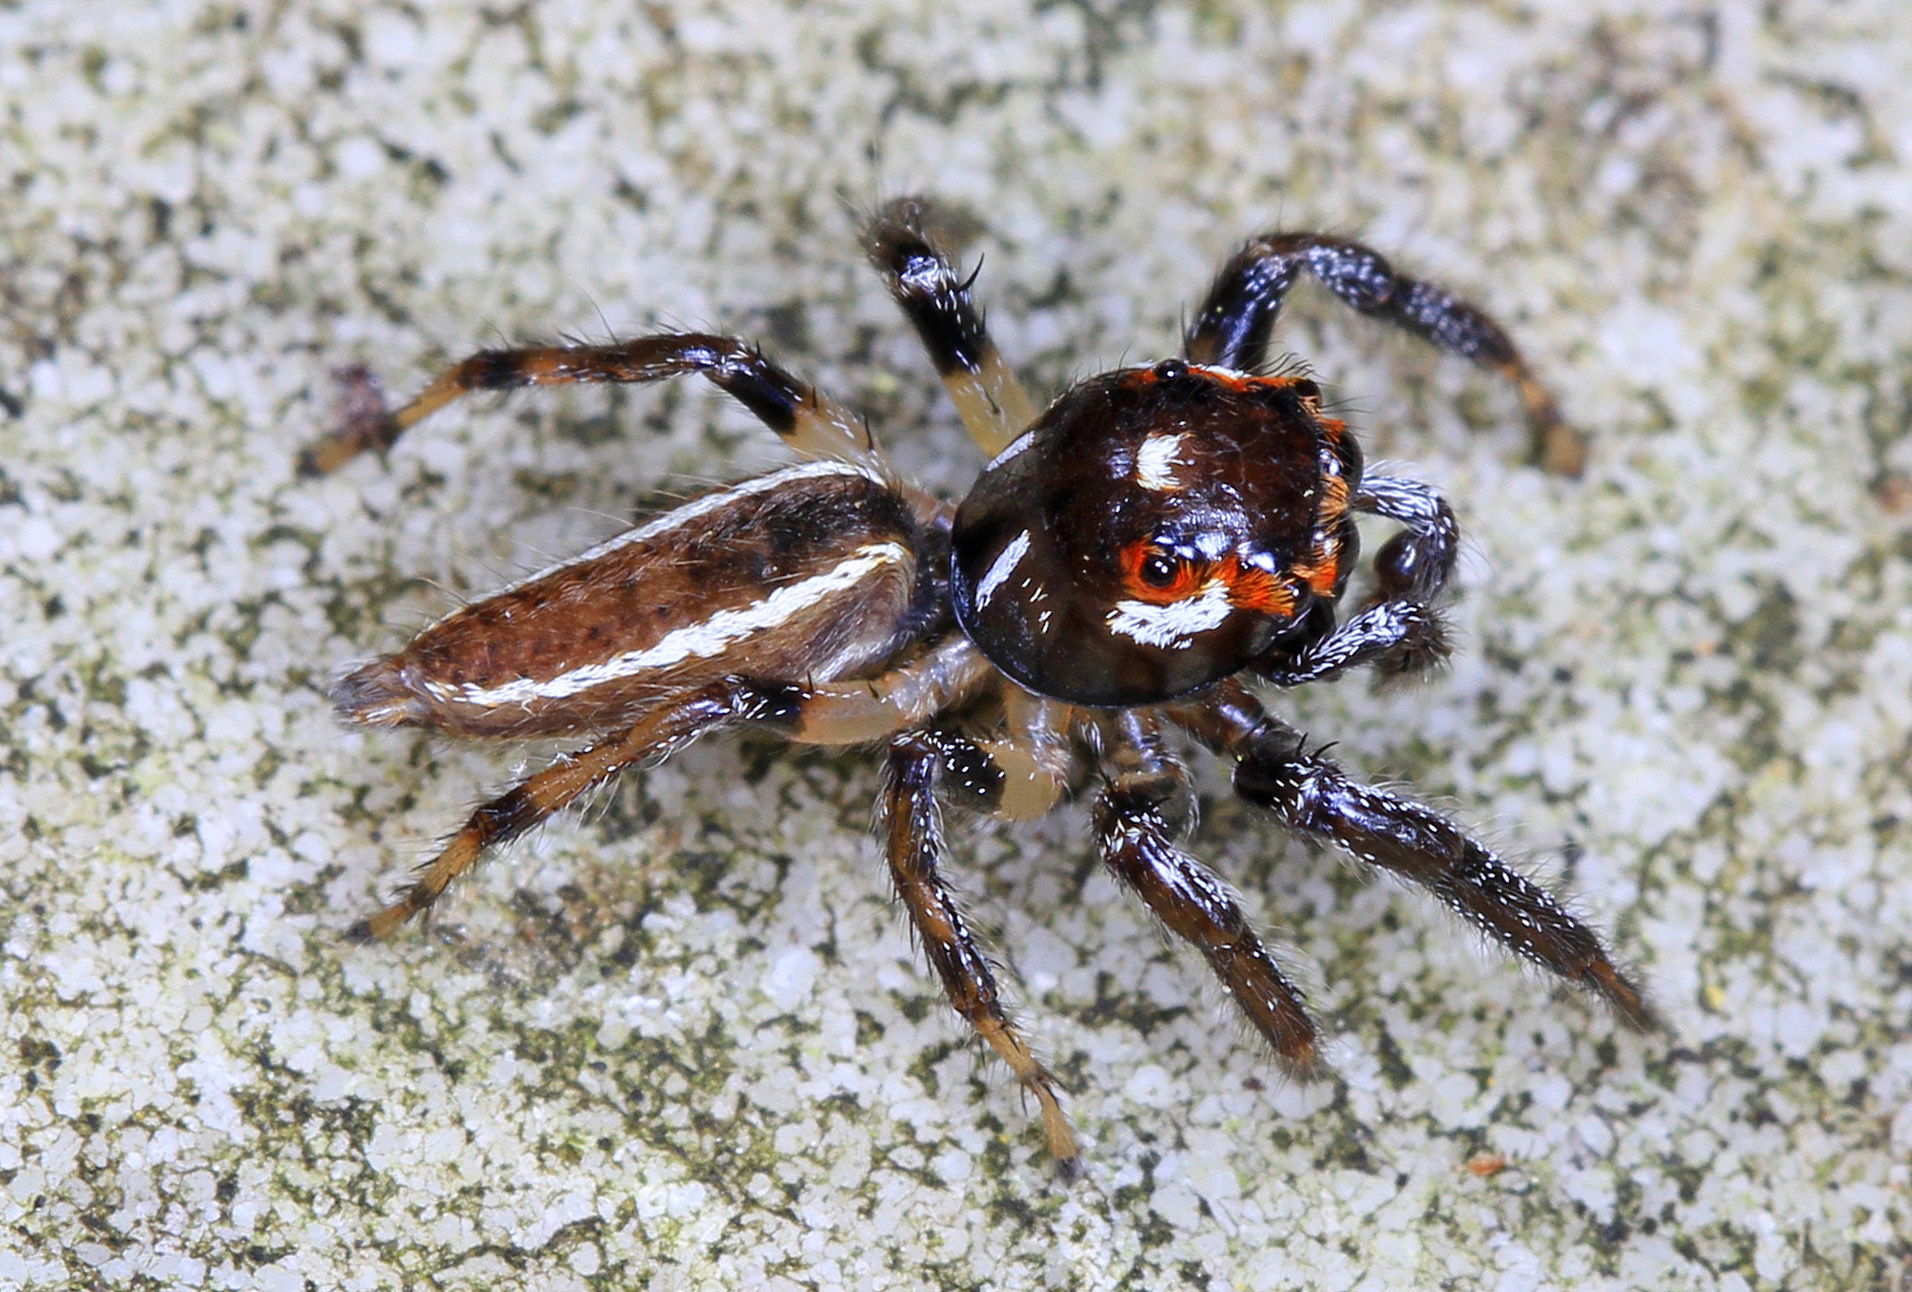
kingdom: Animalia
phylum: Arthropoda
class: Arachnida
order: Araneae
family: Salticidae
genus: Colonus
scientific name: Colonus sylvanus
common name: Jumping spiders
